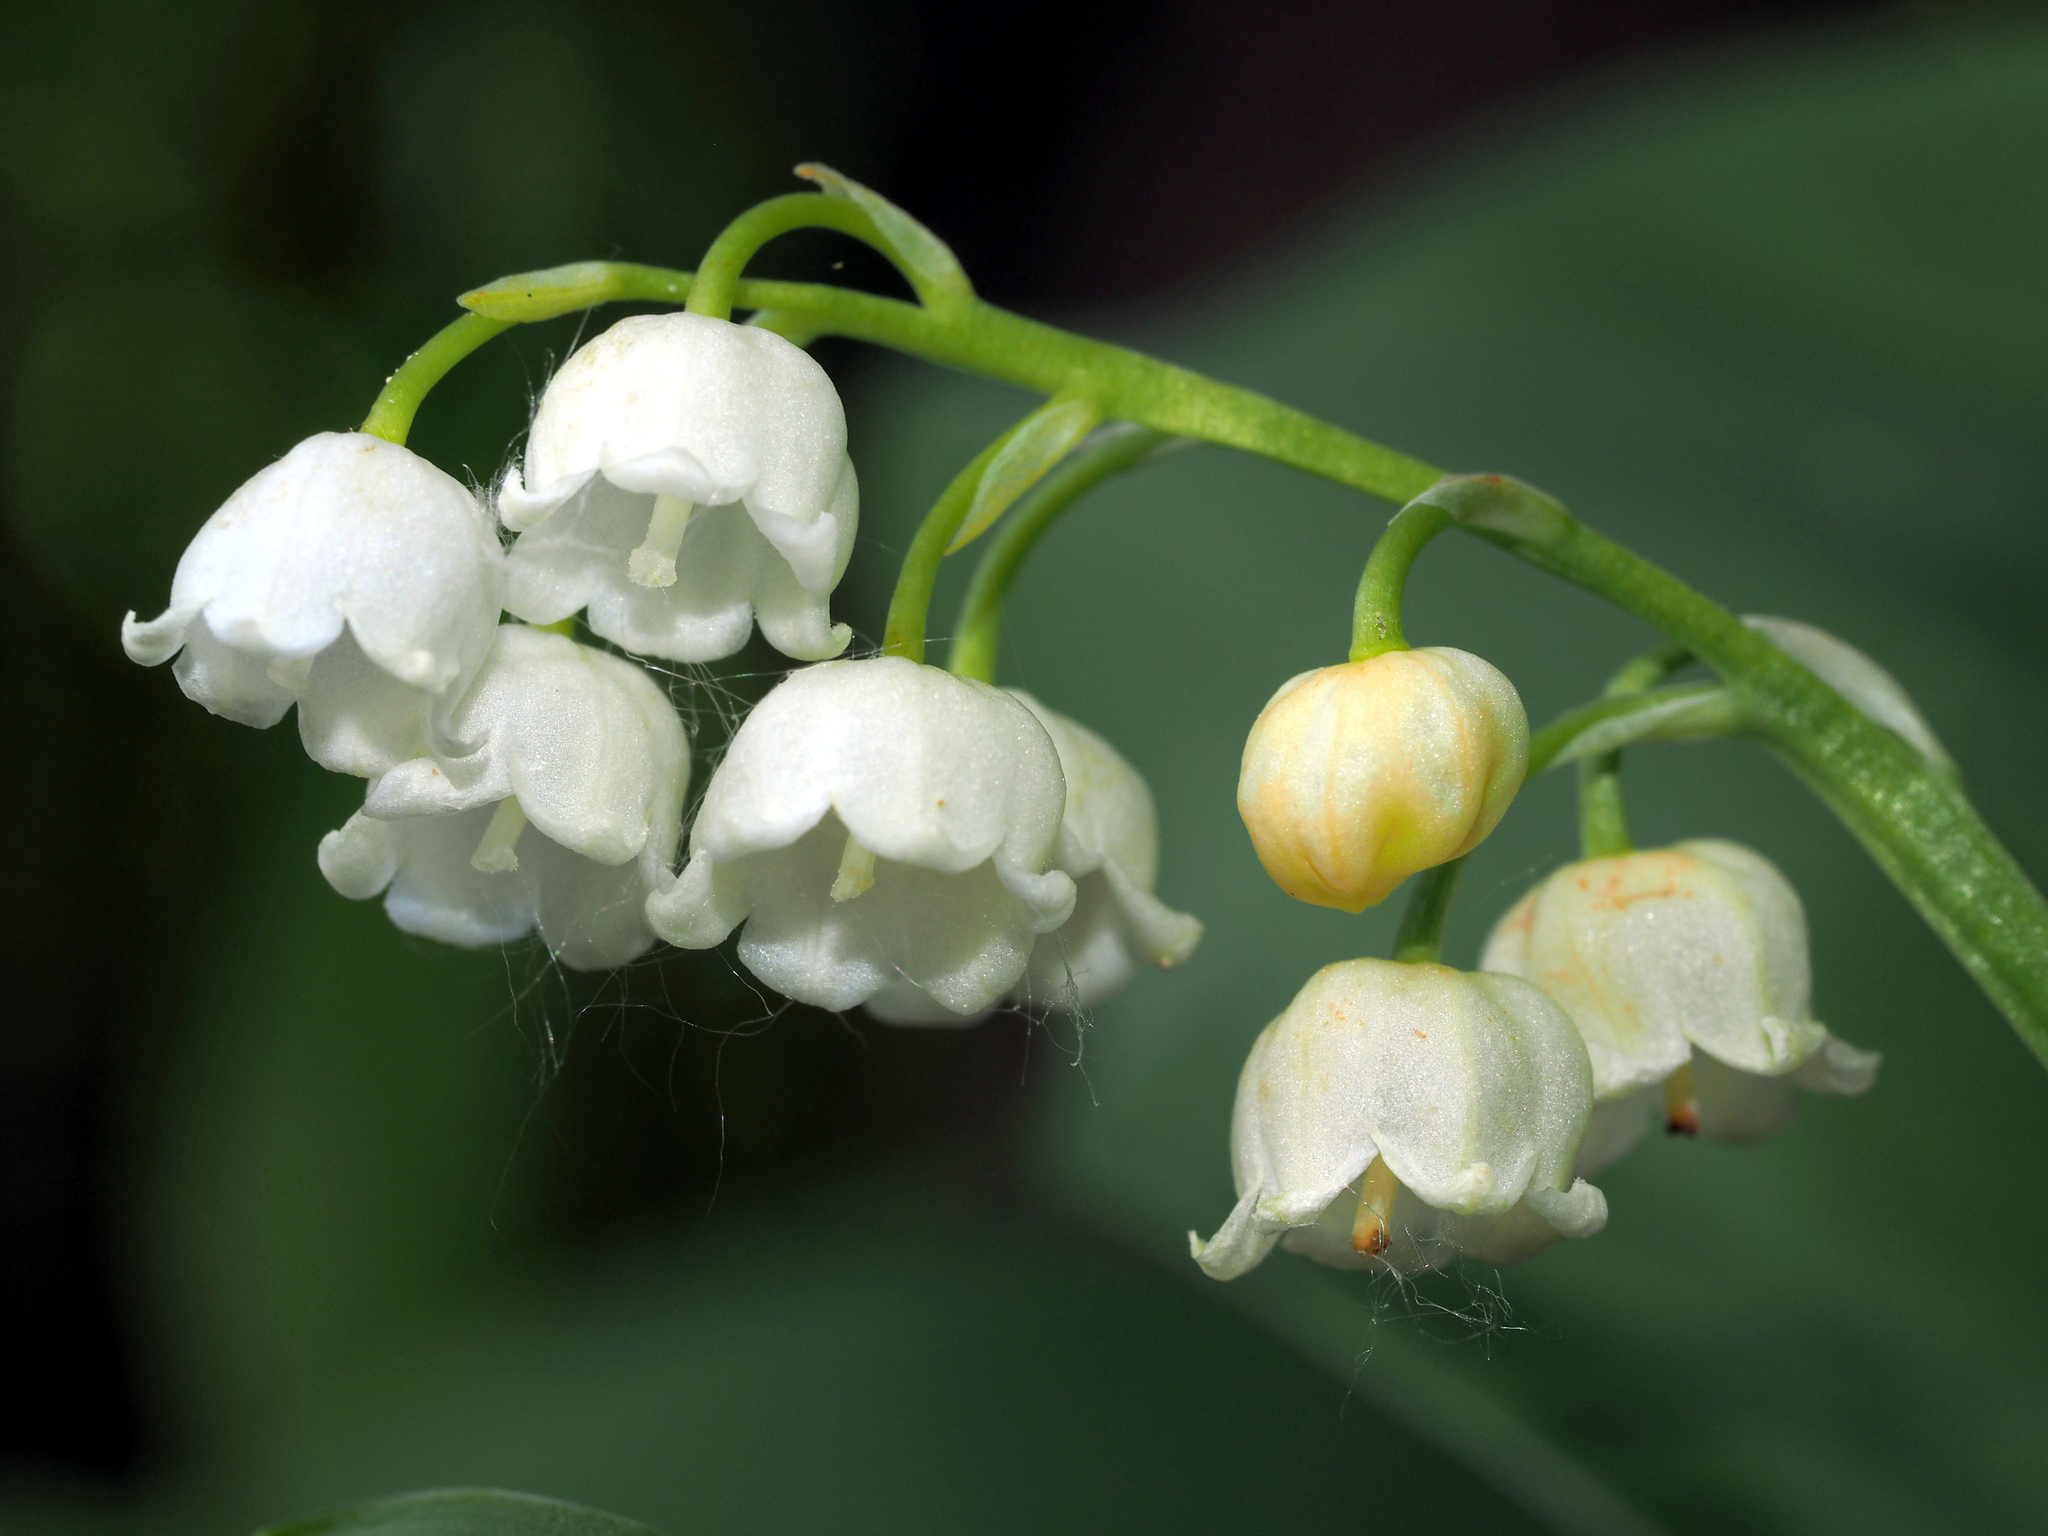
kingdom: Plantae
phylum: Tracheophyta
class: Liliopsida
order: Asparagales
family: Asparagaceae
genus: Convallaria
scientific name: Convallaria majalis
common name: Lily-of-the-valley
